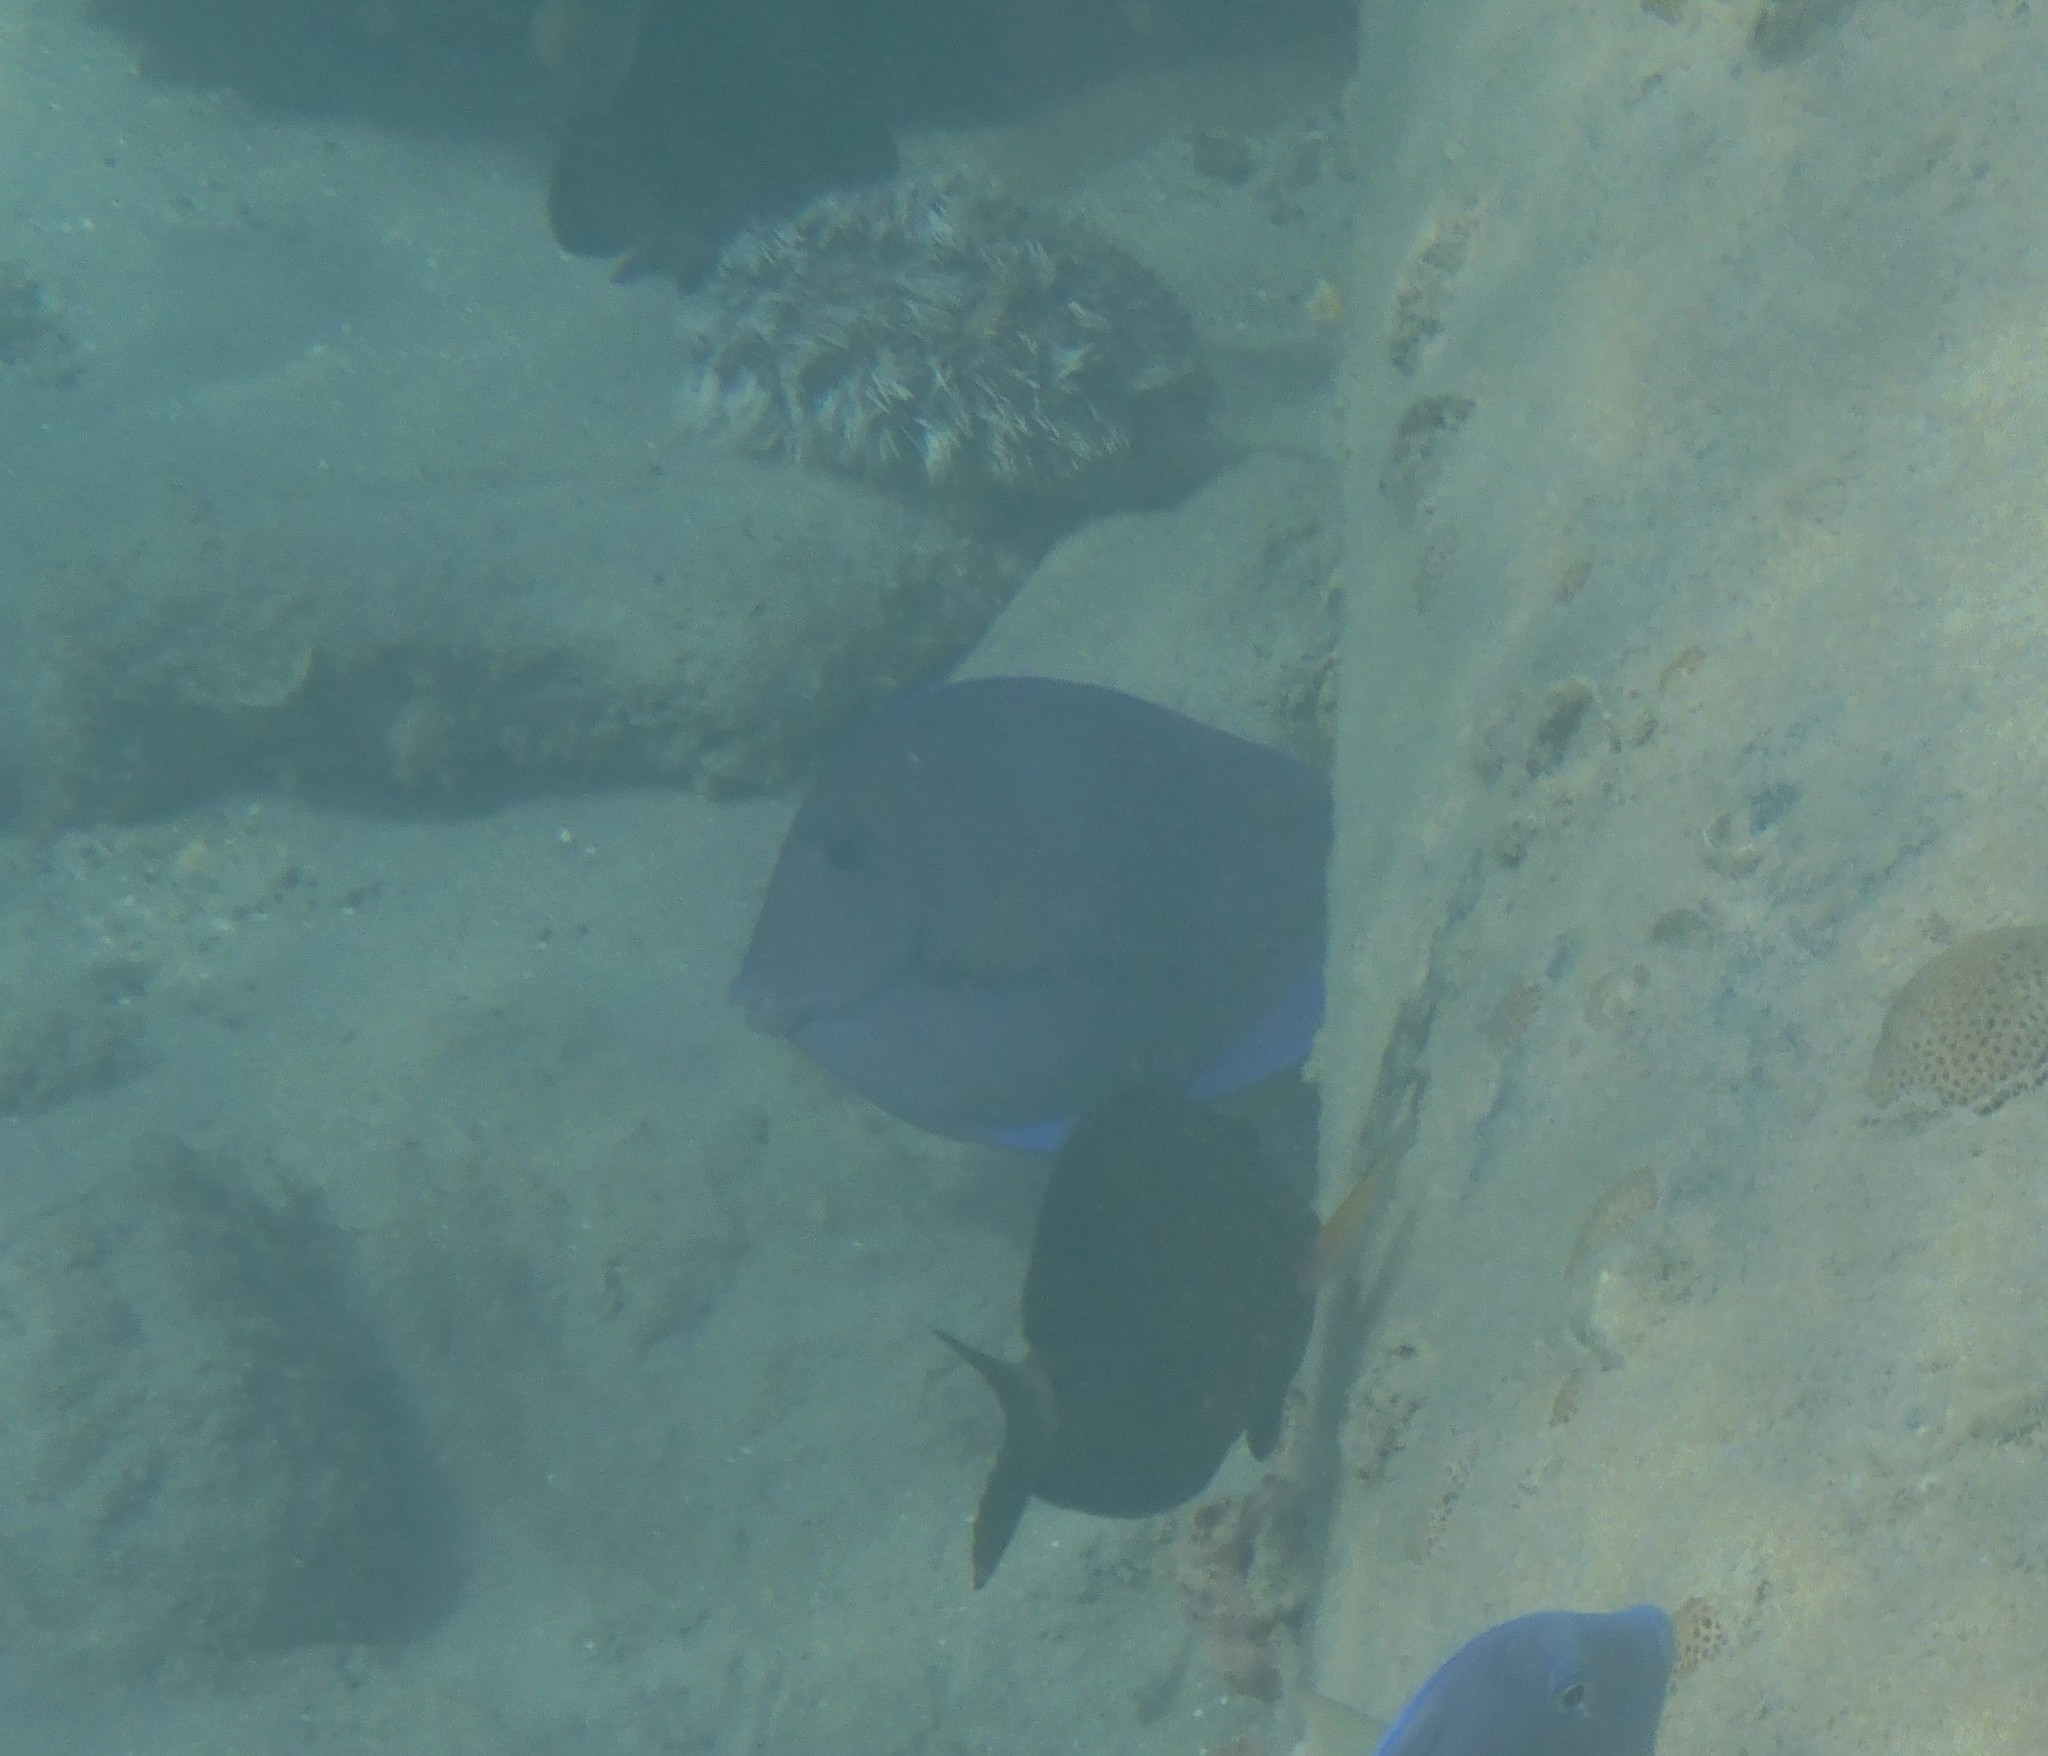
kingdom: Animalia
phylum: Chordata
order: Perciformes
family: Acanthuridae
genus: Acanthurus
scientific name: Acanthurus coeruleus
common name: Blue tang
